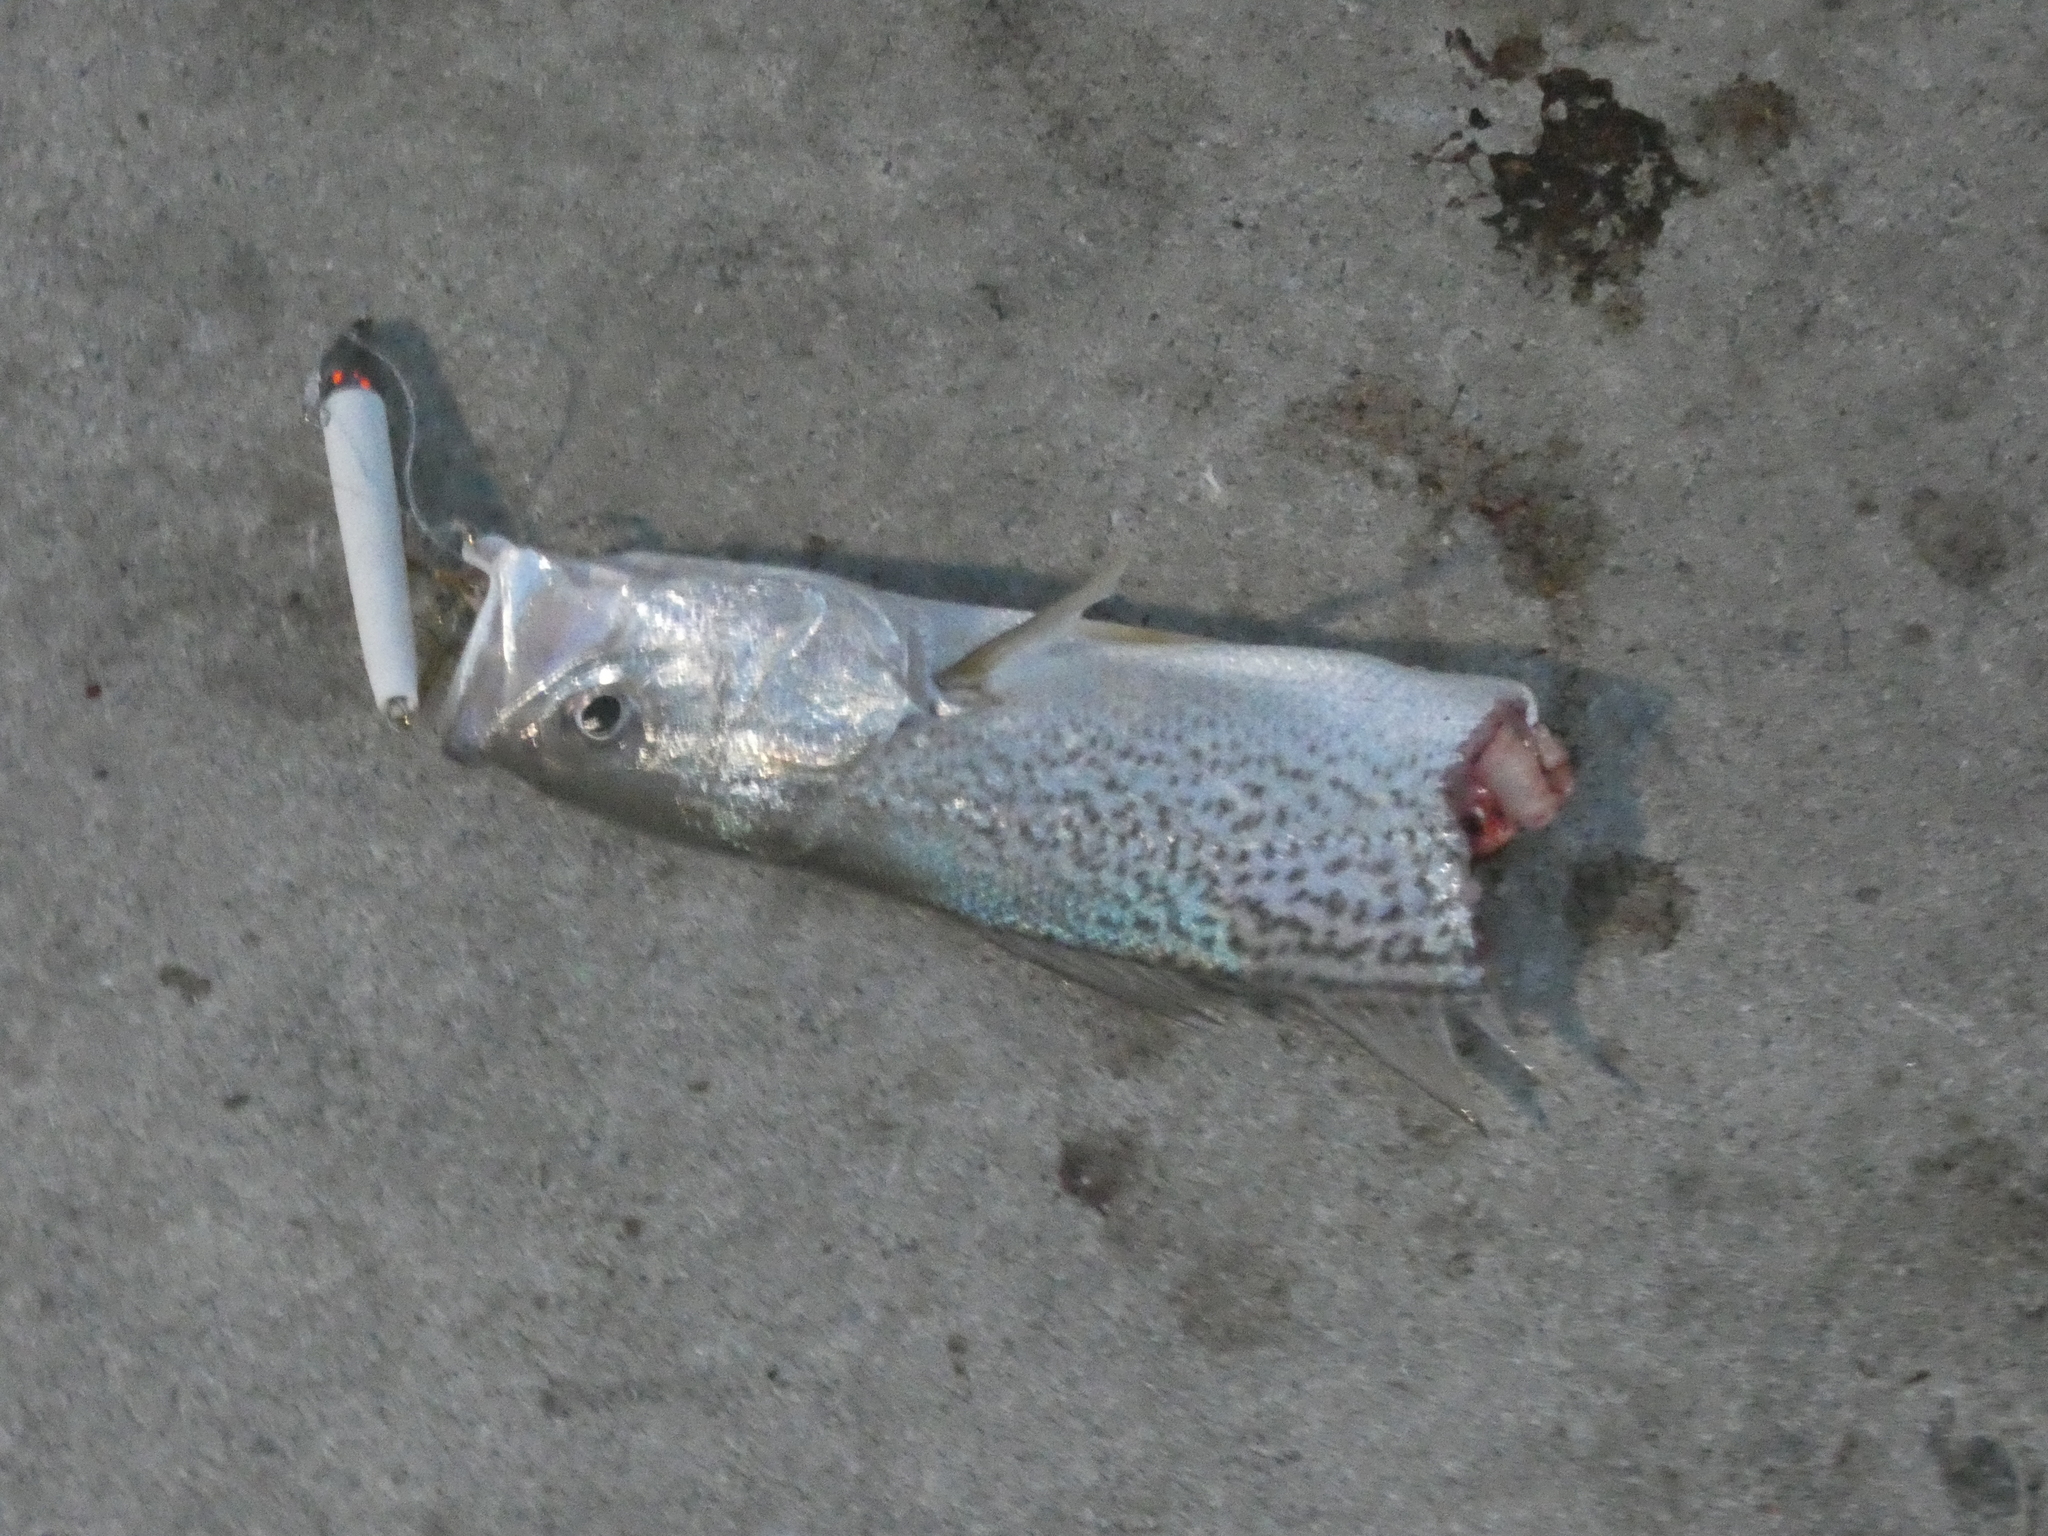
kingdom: Animalia
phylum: Chordata
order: Perciformes
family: Sciaenidae
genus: Cynoscion
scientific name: Cynoscion regalis
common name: Squeteague
